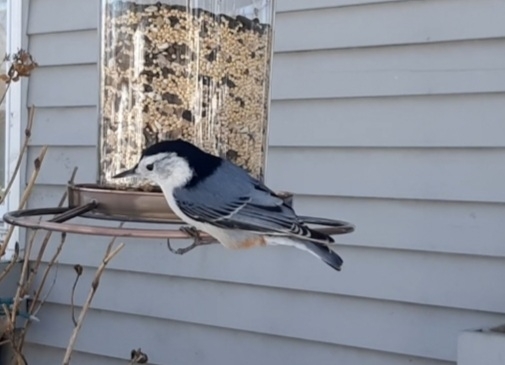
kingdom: Animalia
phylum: Chordata
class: Aves
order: Passeriformes
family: Sittidae
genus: Sitta
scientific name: Sitta carolinensis
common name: White-breasted nuthatch
